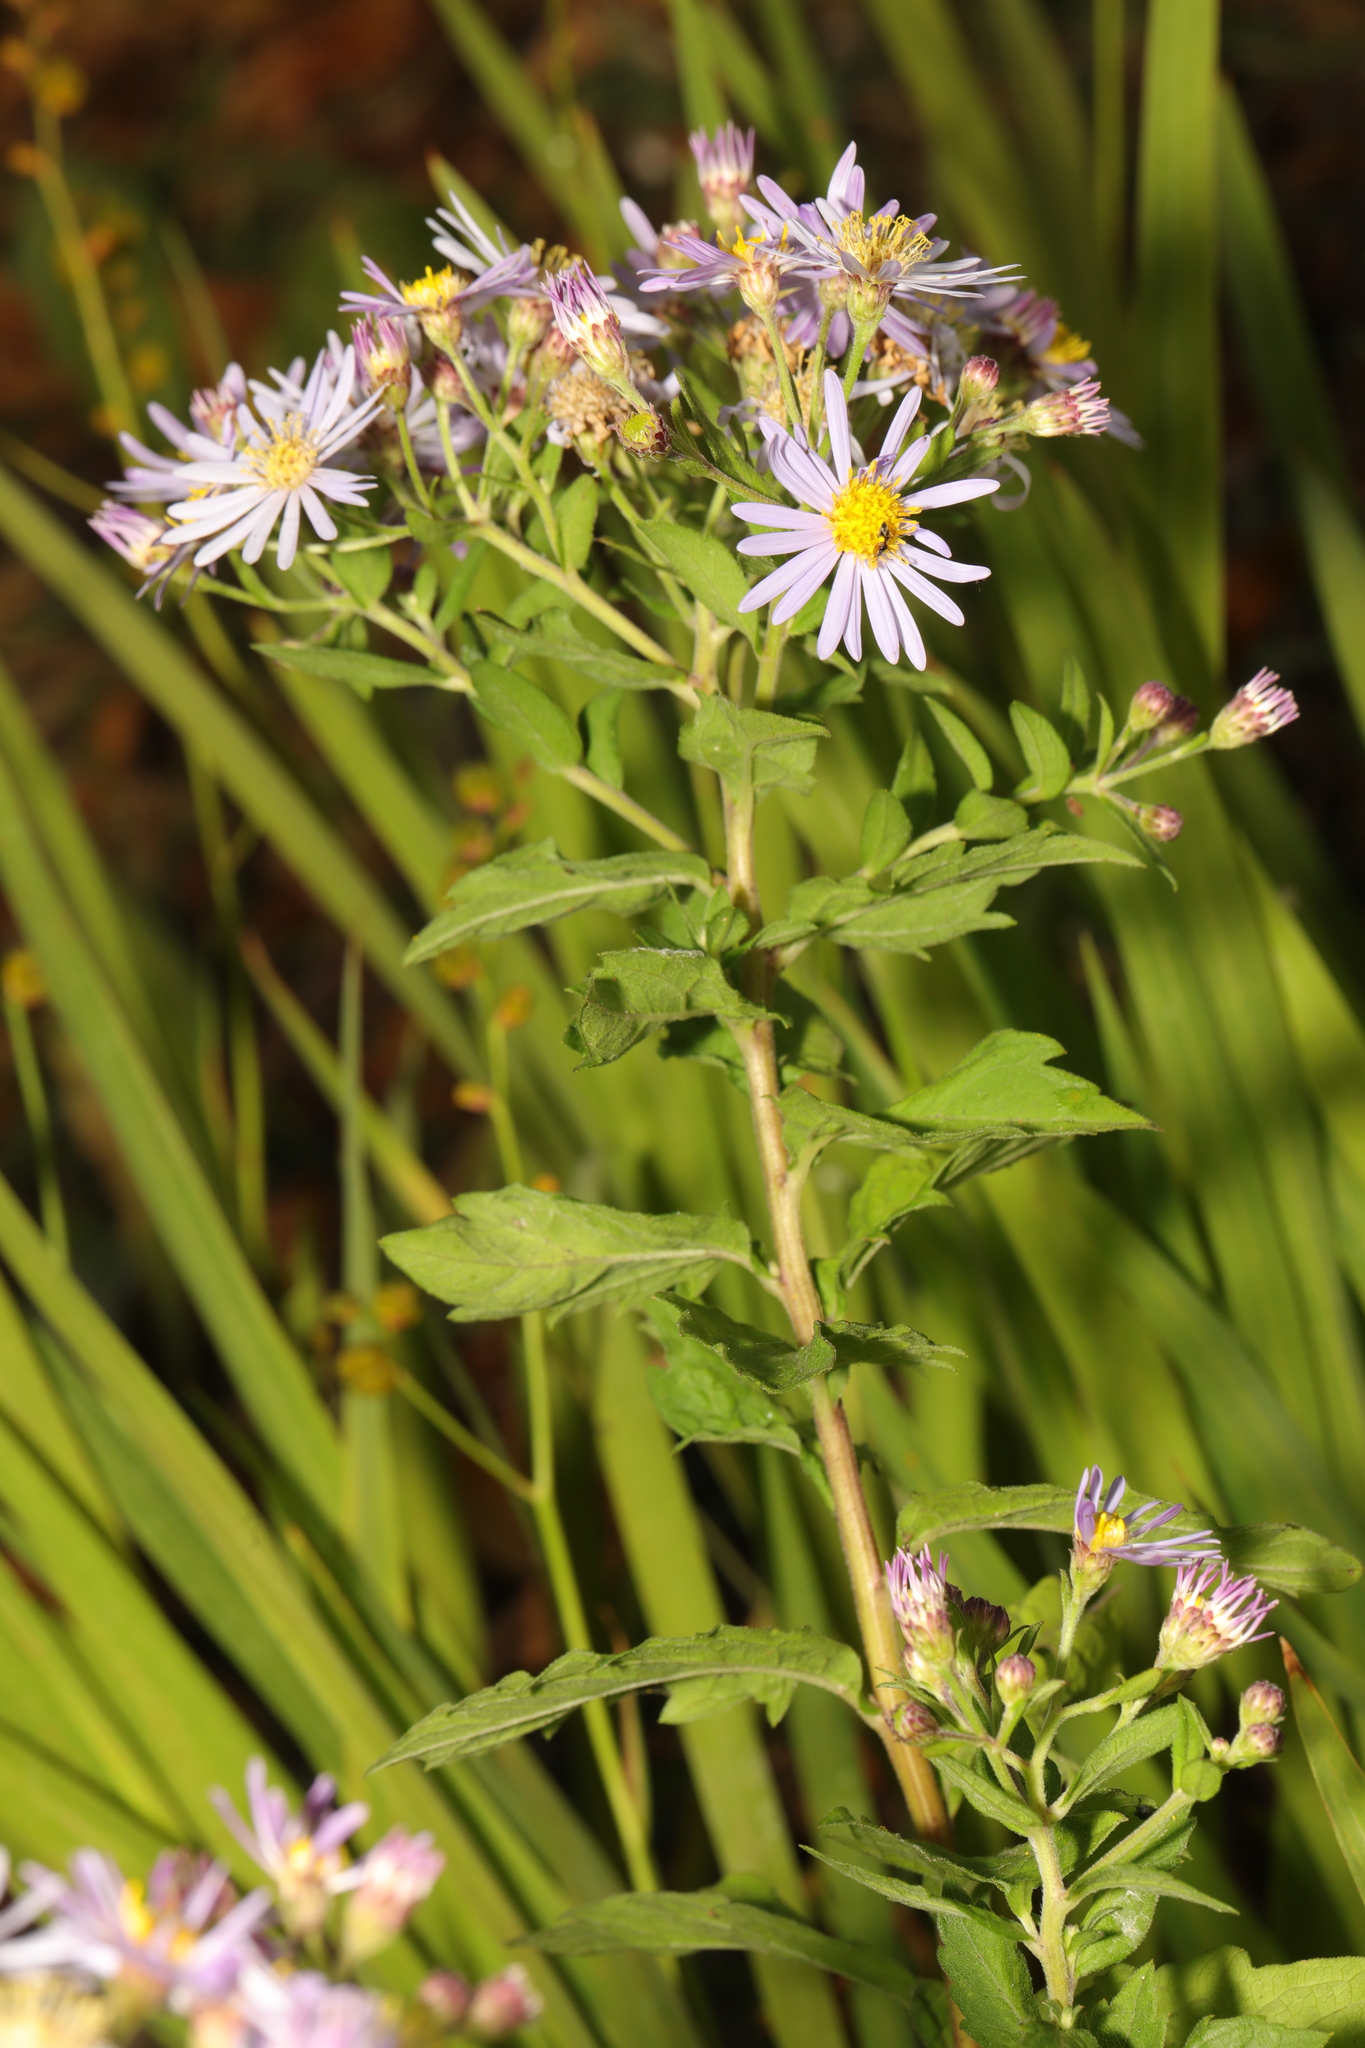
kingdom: Plantae
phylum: Tracheophyta
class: Magnoliopsida
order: Asterales
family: Asteraceae
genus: Symphyotrichum
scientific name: Symphyotrichum
